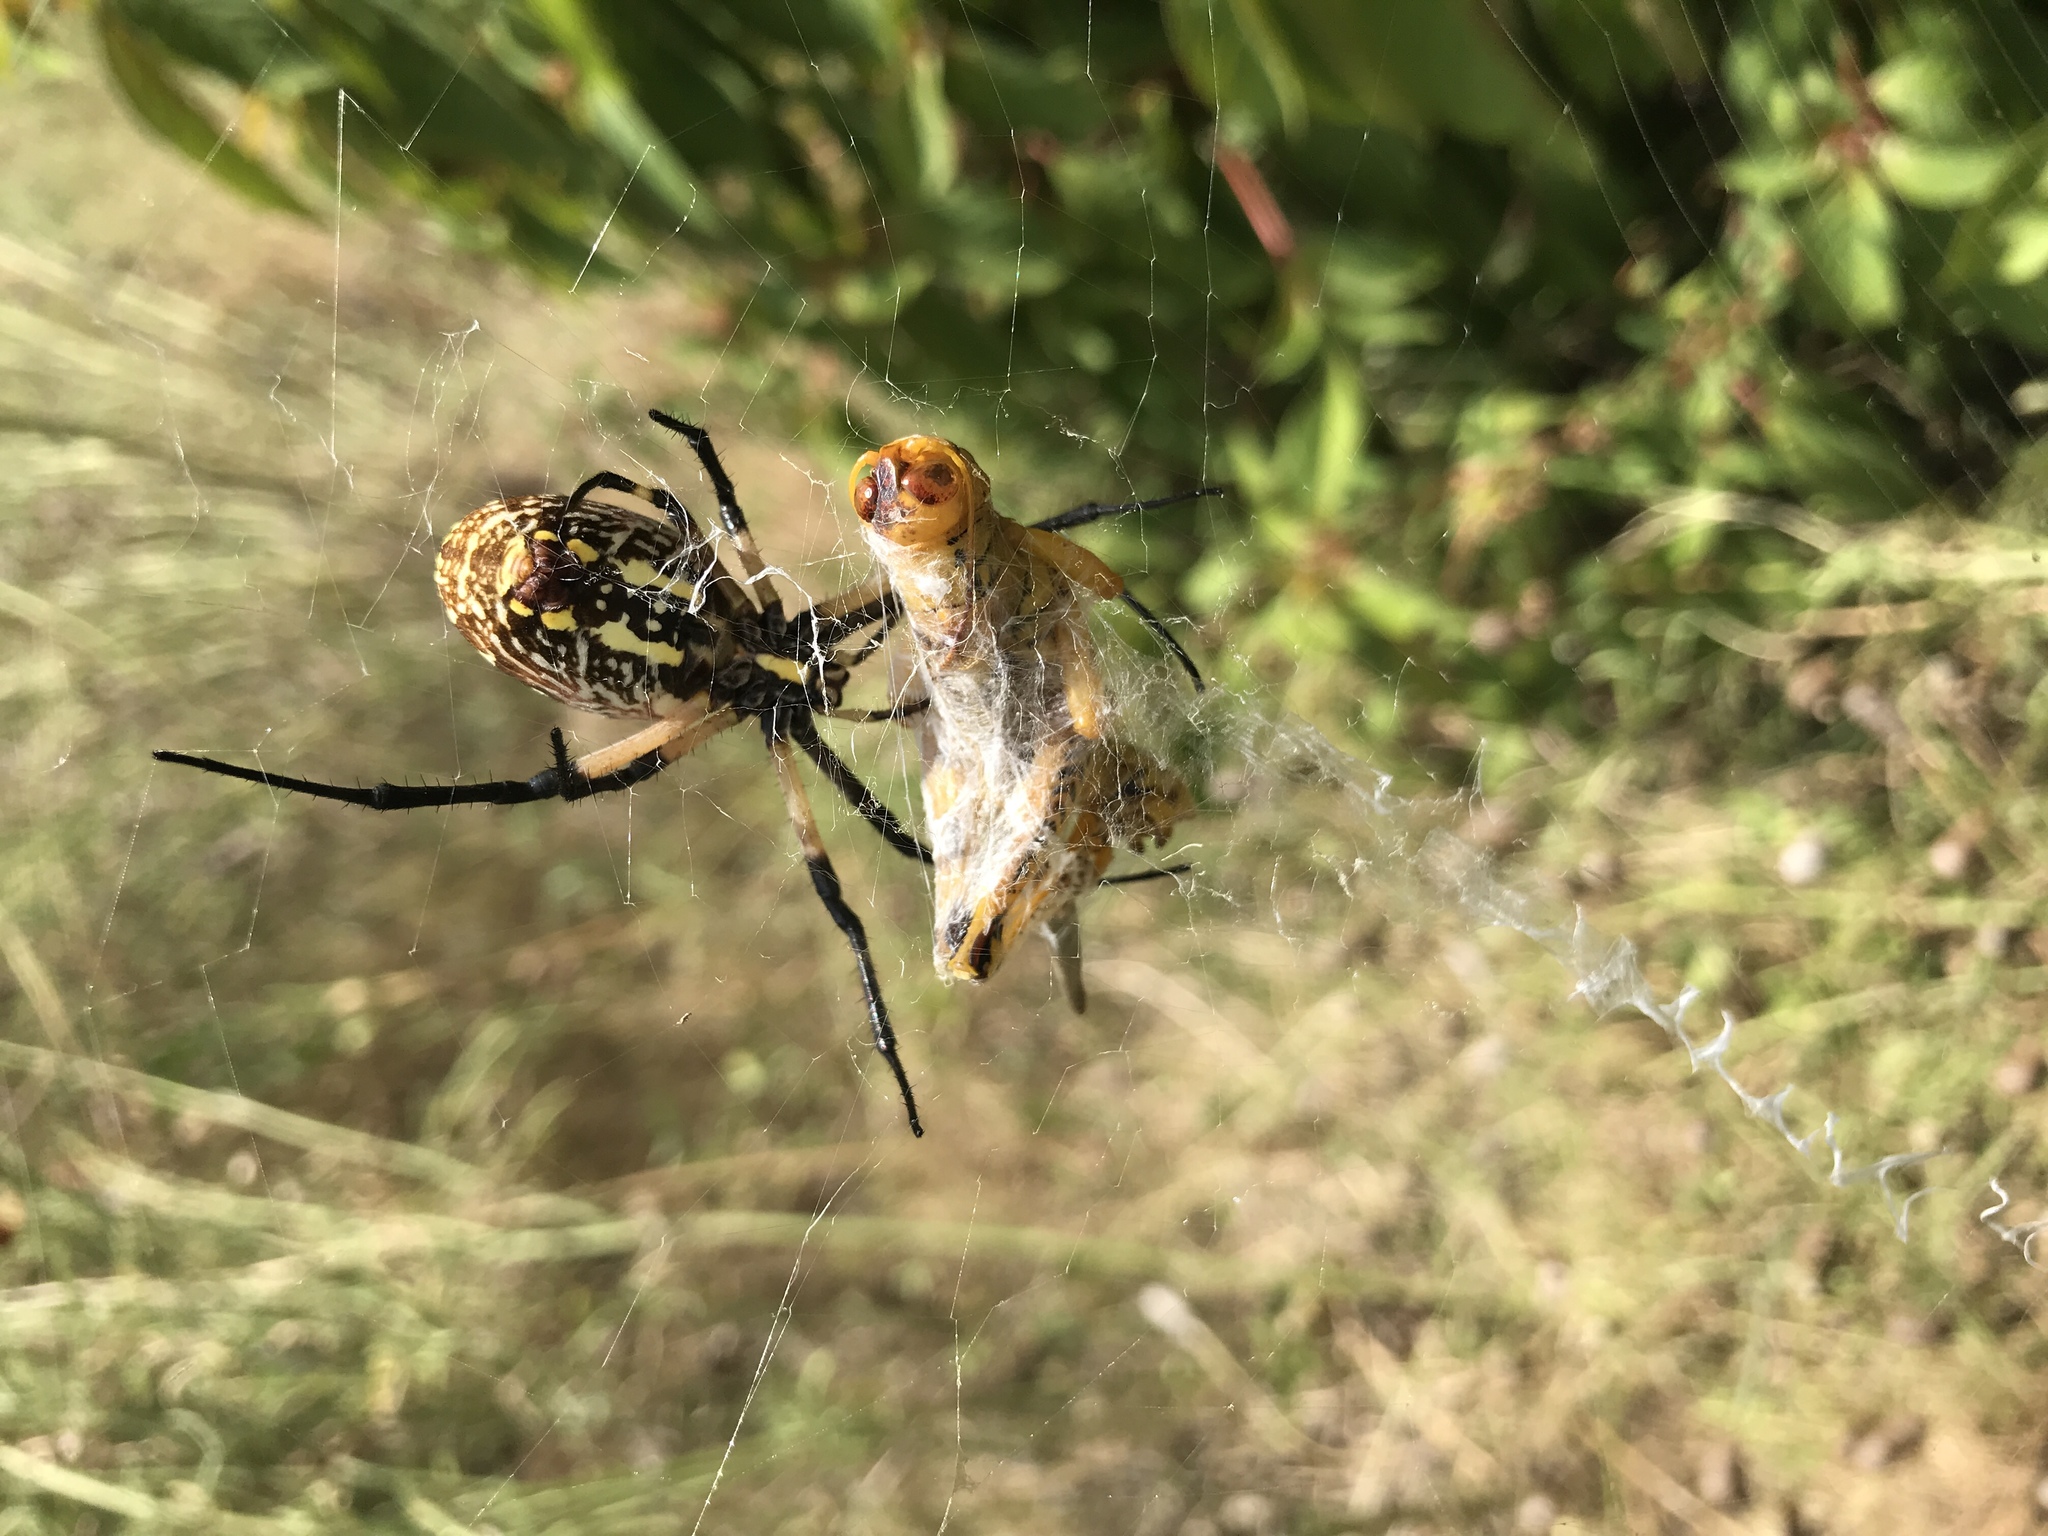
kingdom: Animalia
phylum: Arthropoda
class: Arachnida
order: Araneae
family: Araneidae
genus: Argiope
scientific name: Argiope aurantia
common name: Orb weavers
